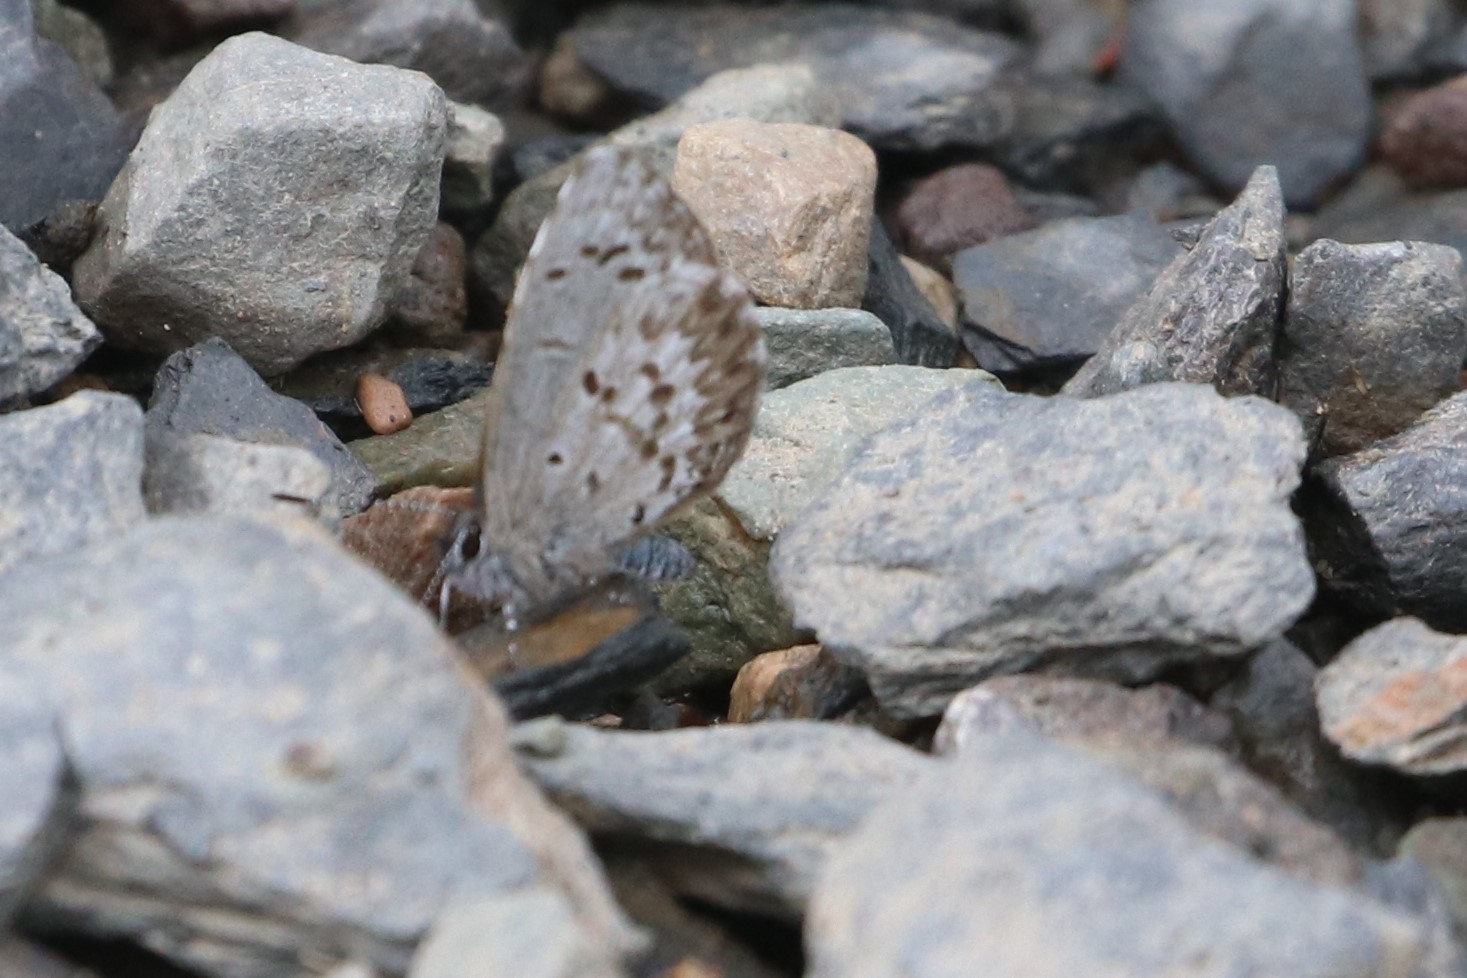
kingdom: Animalia
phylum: Arthropoda
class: Insecta
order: Lepidoptera
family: Lycaenidae
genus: Celastrina
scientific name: Celastrina lucia
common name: Lucia azure
